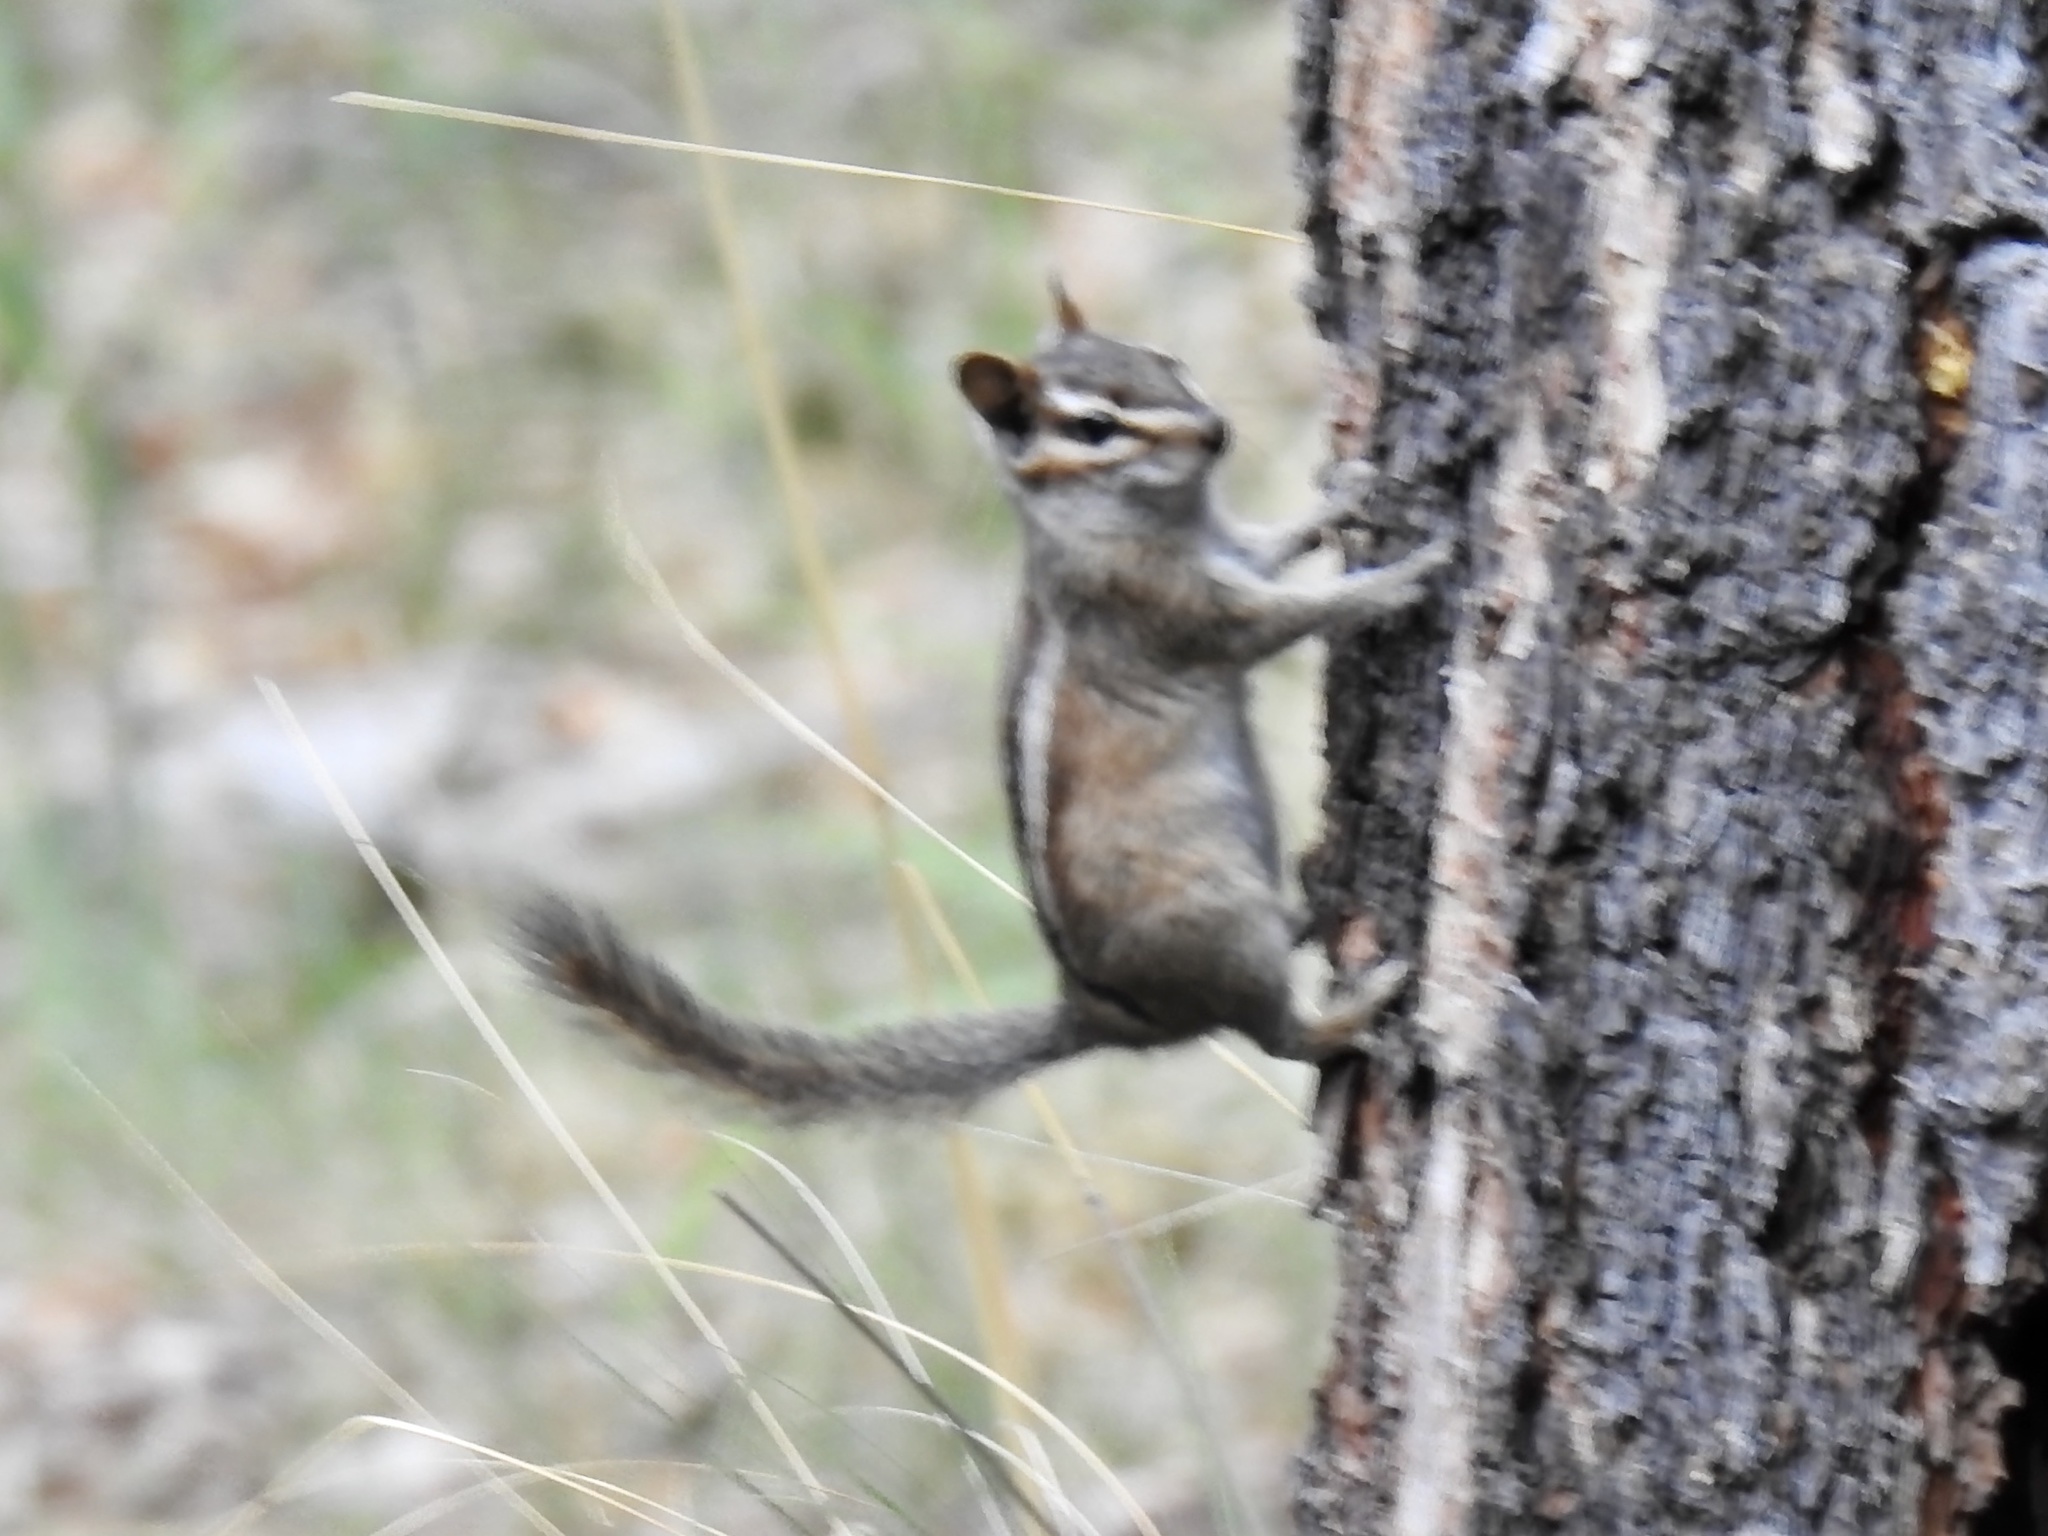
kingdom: Animalia
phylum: Chordata
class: Mammalia
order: Rodentia
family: Sciuridae
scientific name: Sciuridae
